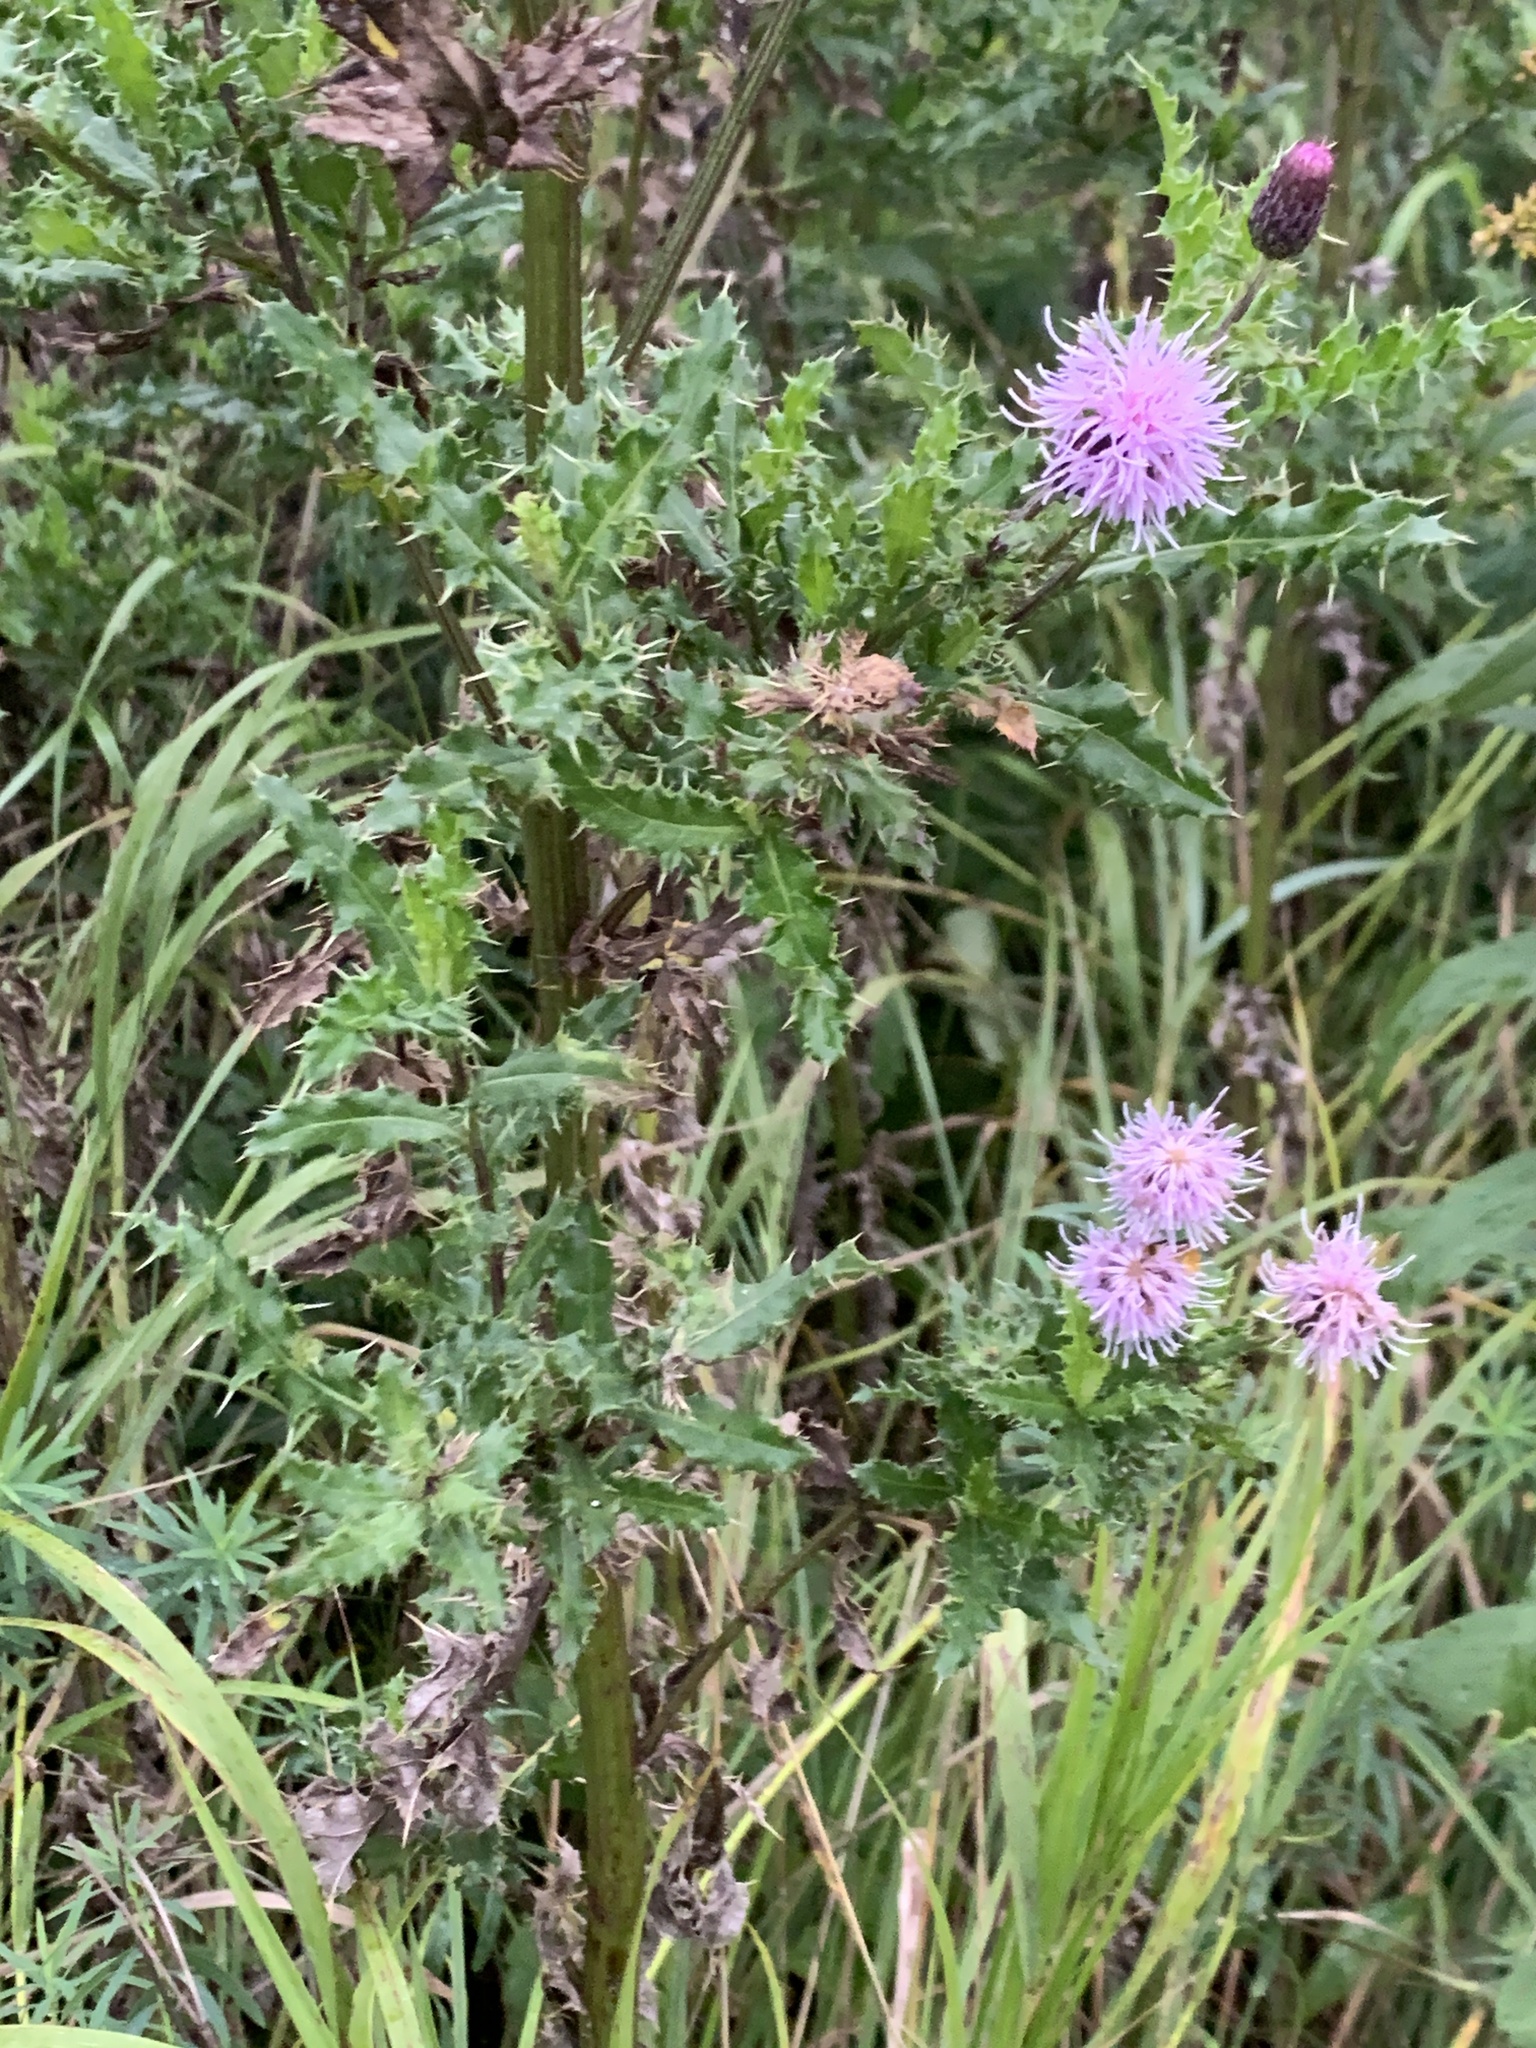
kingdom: Plantae
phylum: Tracheophyta
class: Magnoliopsida
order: Asterales
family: Asteraceae
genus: Cirsium
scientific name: Cirsium arvense
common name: Creeping thistle
